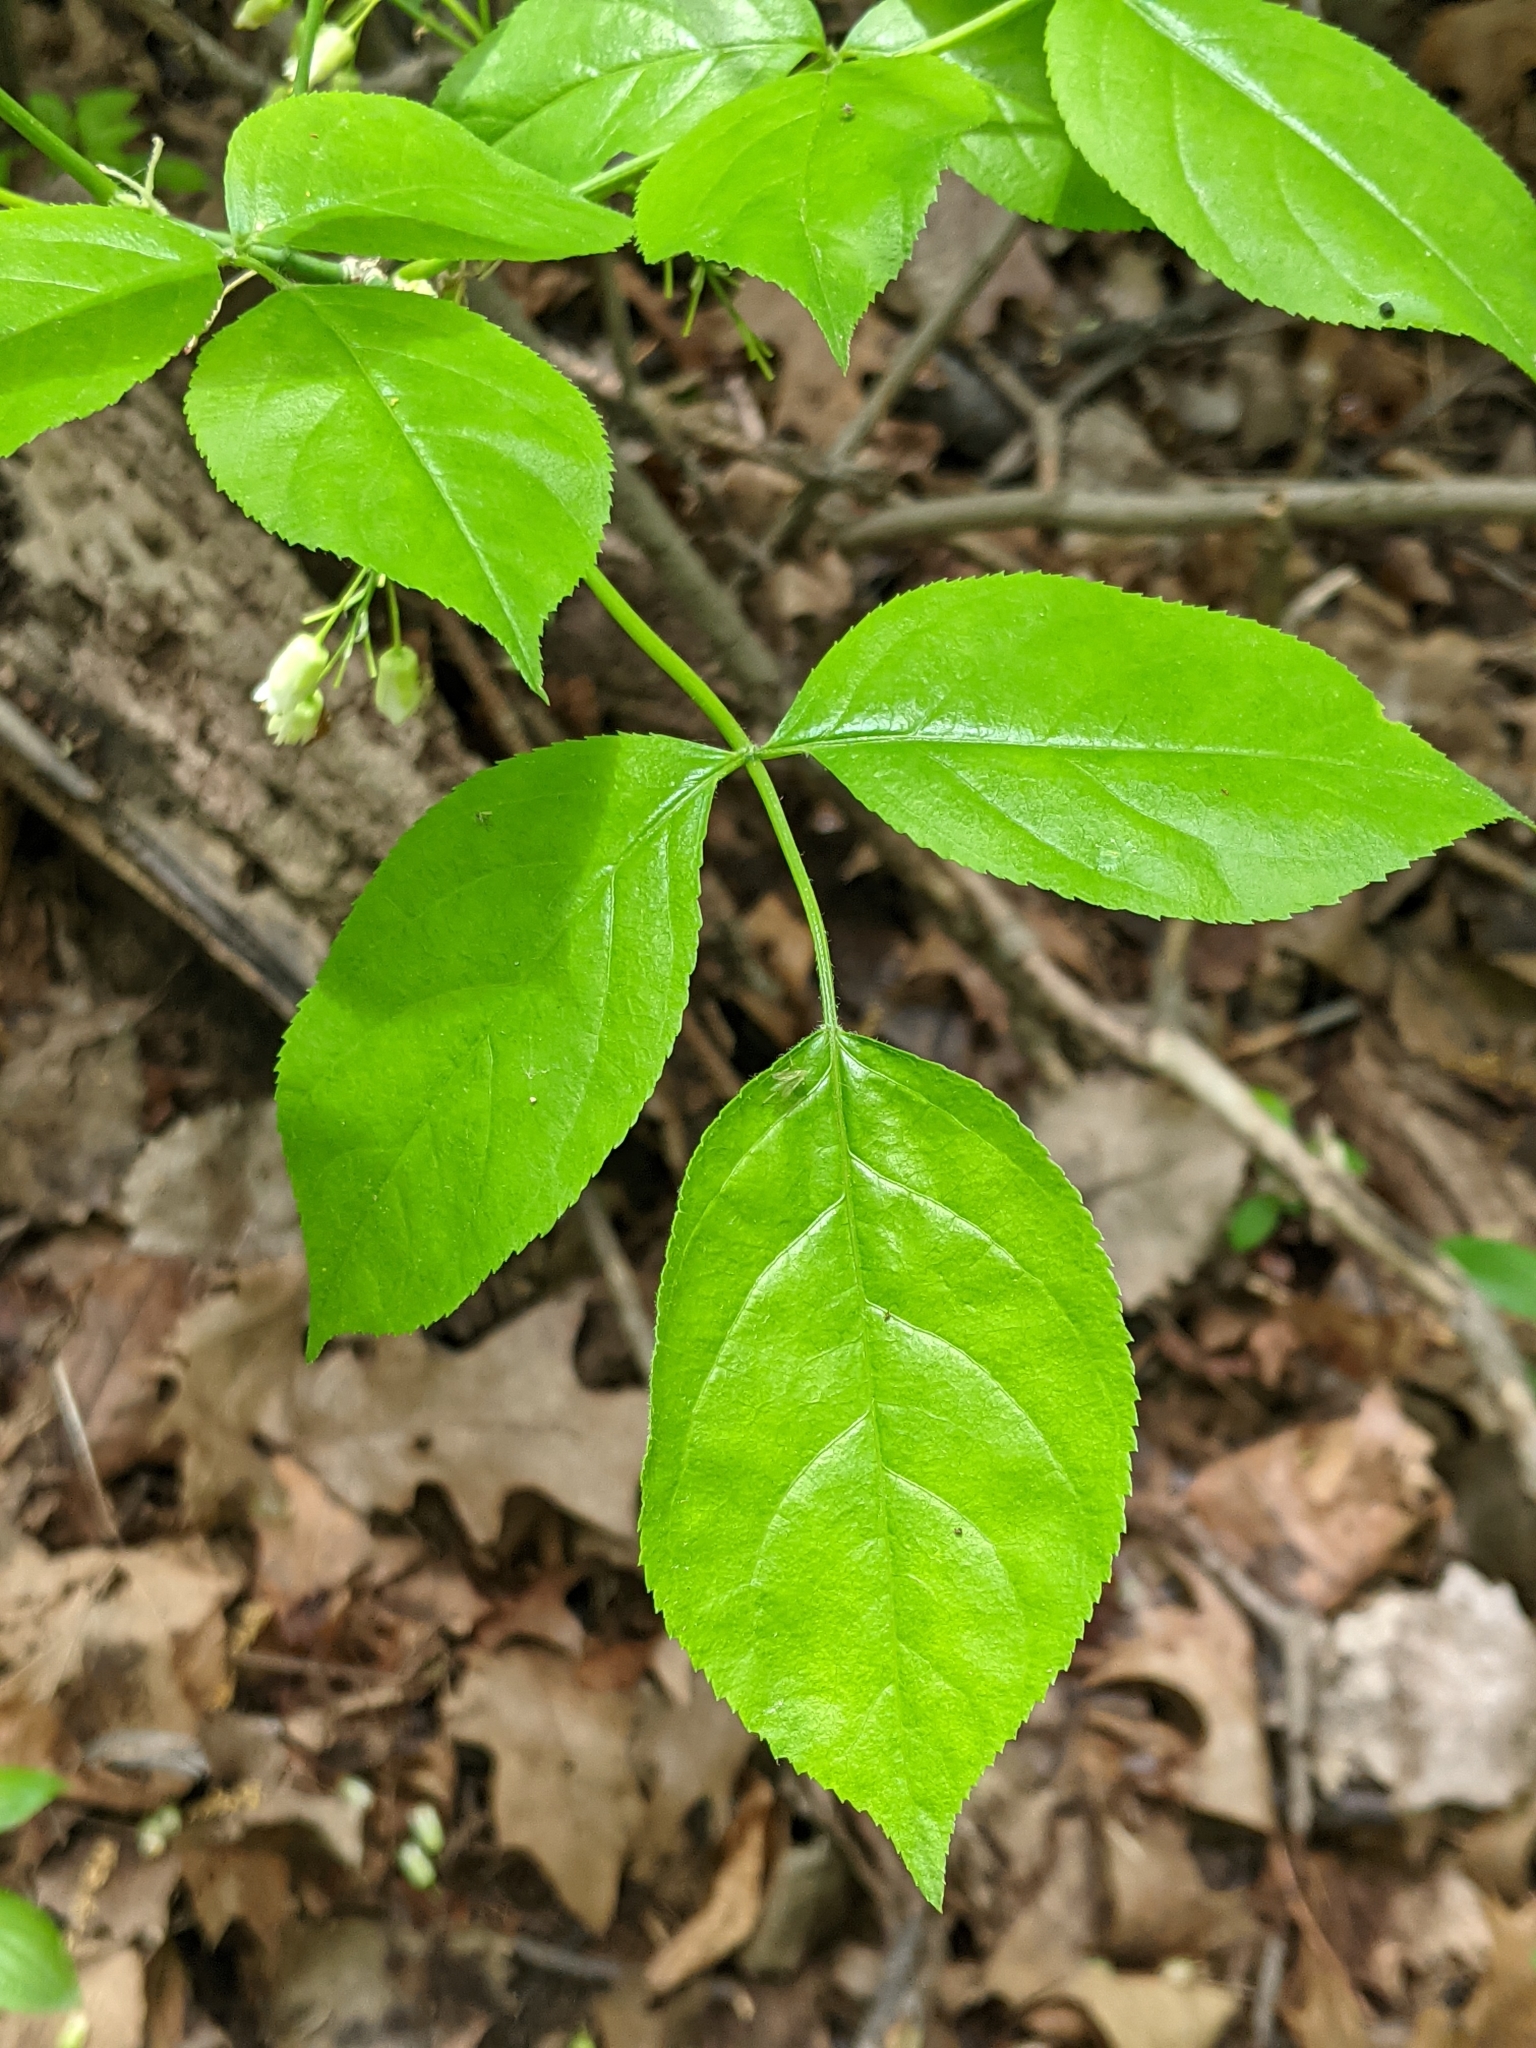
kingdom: Plantae
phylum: Tracheophyta
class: Magnoliopsida
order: Crossosomatales
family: Staphyleaceae
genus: Staphylea
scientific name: Staphylea trifolia
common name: American bladdernut
